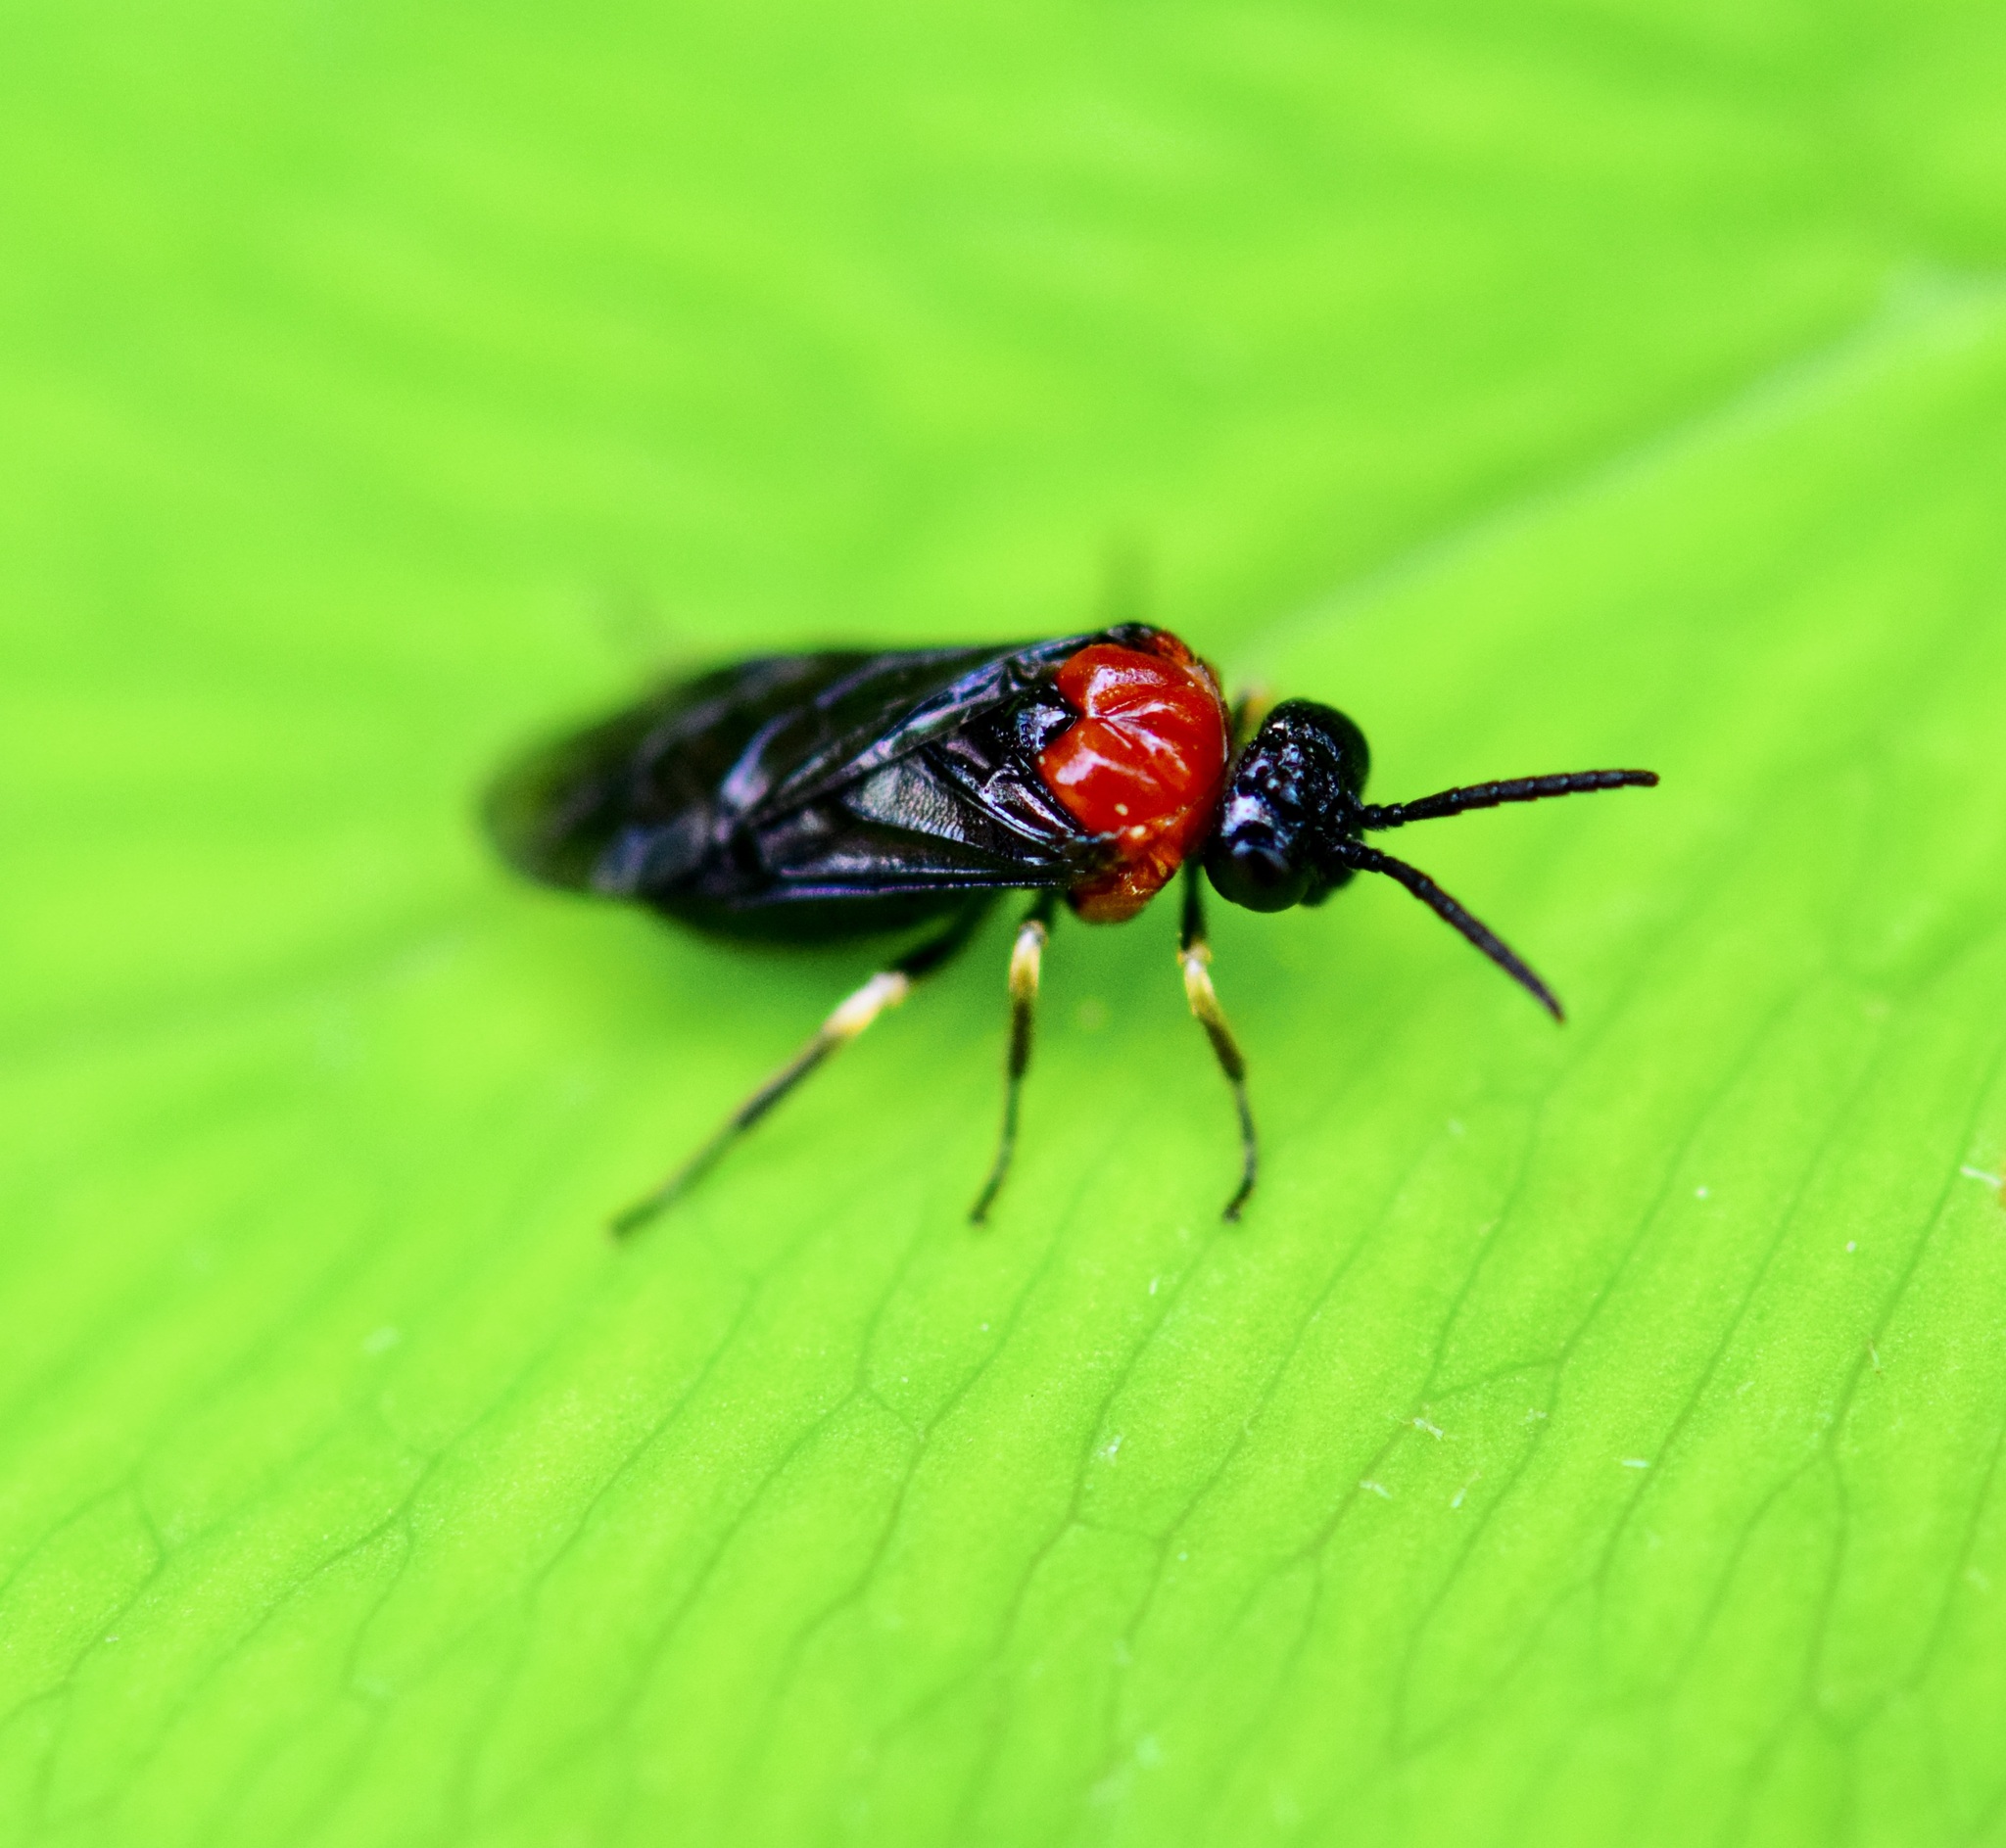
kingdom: Animalia
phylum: Arthropoda
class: Insecta
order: Hymenoptera
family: Tenthredinidae
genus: Eutomostethus
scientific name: Eutomostethus ephippium
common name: Tenthredid wasp
